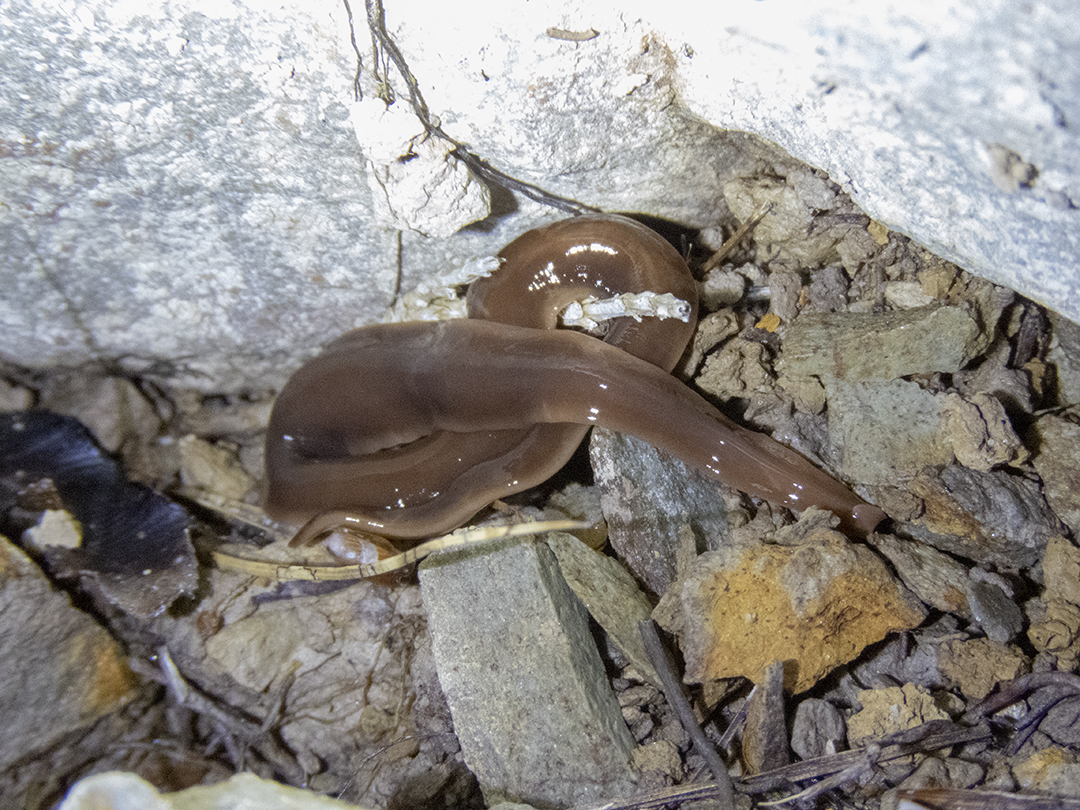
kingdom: Animalia
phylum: Platyhelminthes
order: Tricladida
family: Geoplanidae
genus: Arthurdendyus
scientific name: Arthurdendyus australis
